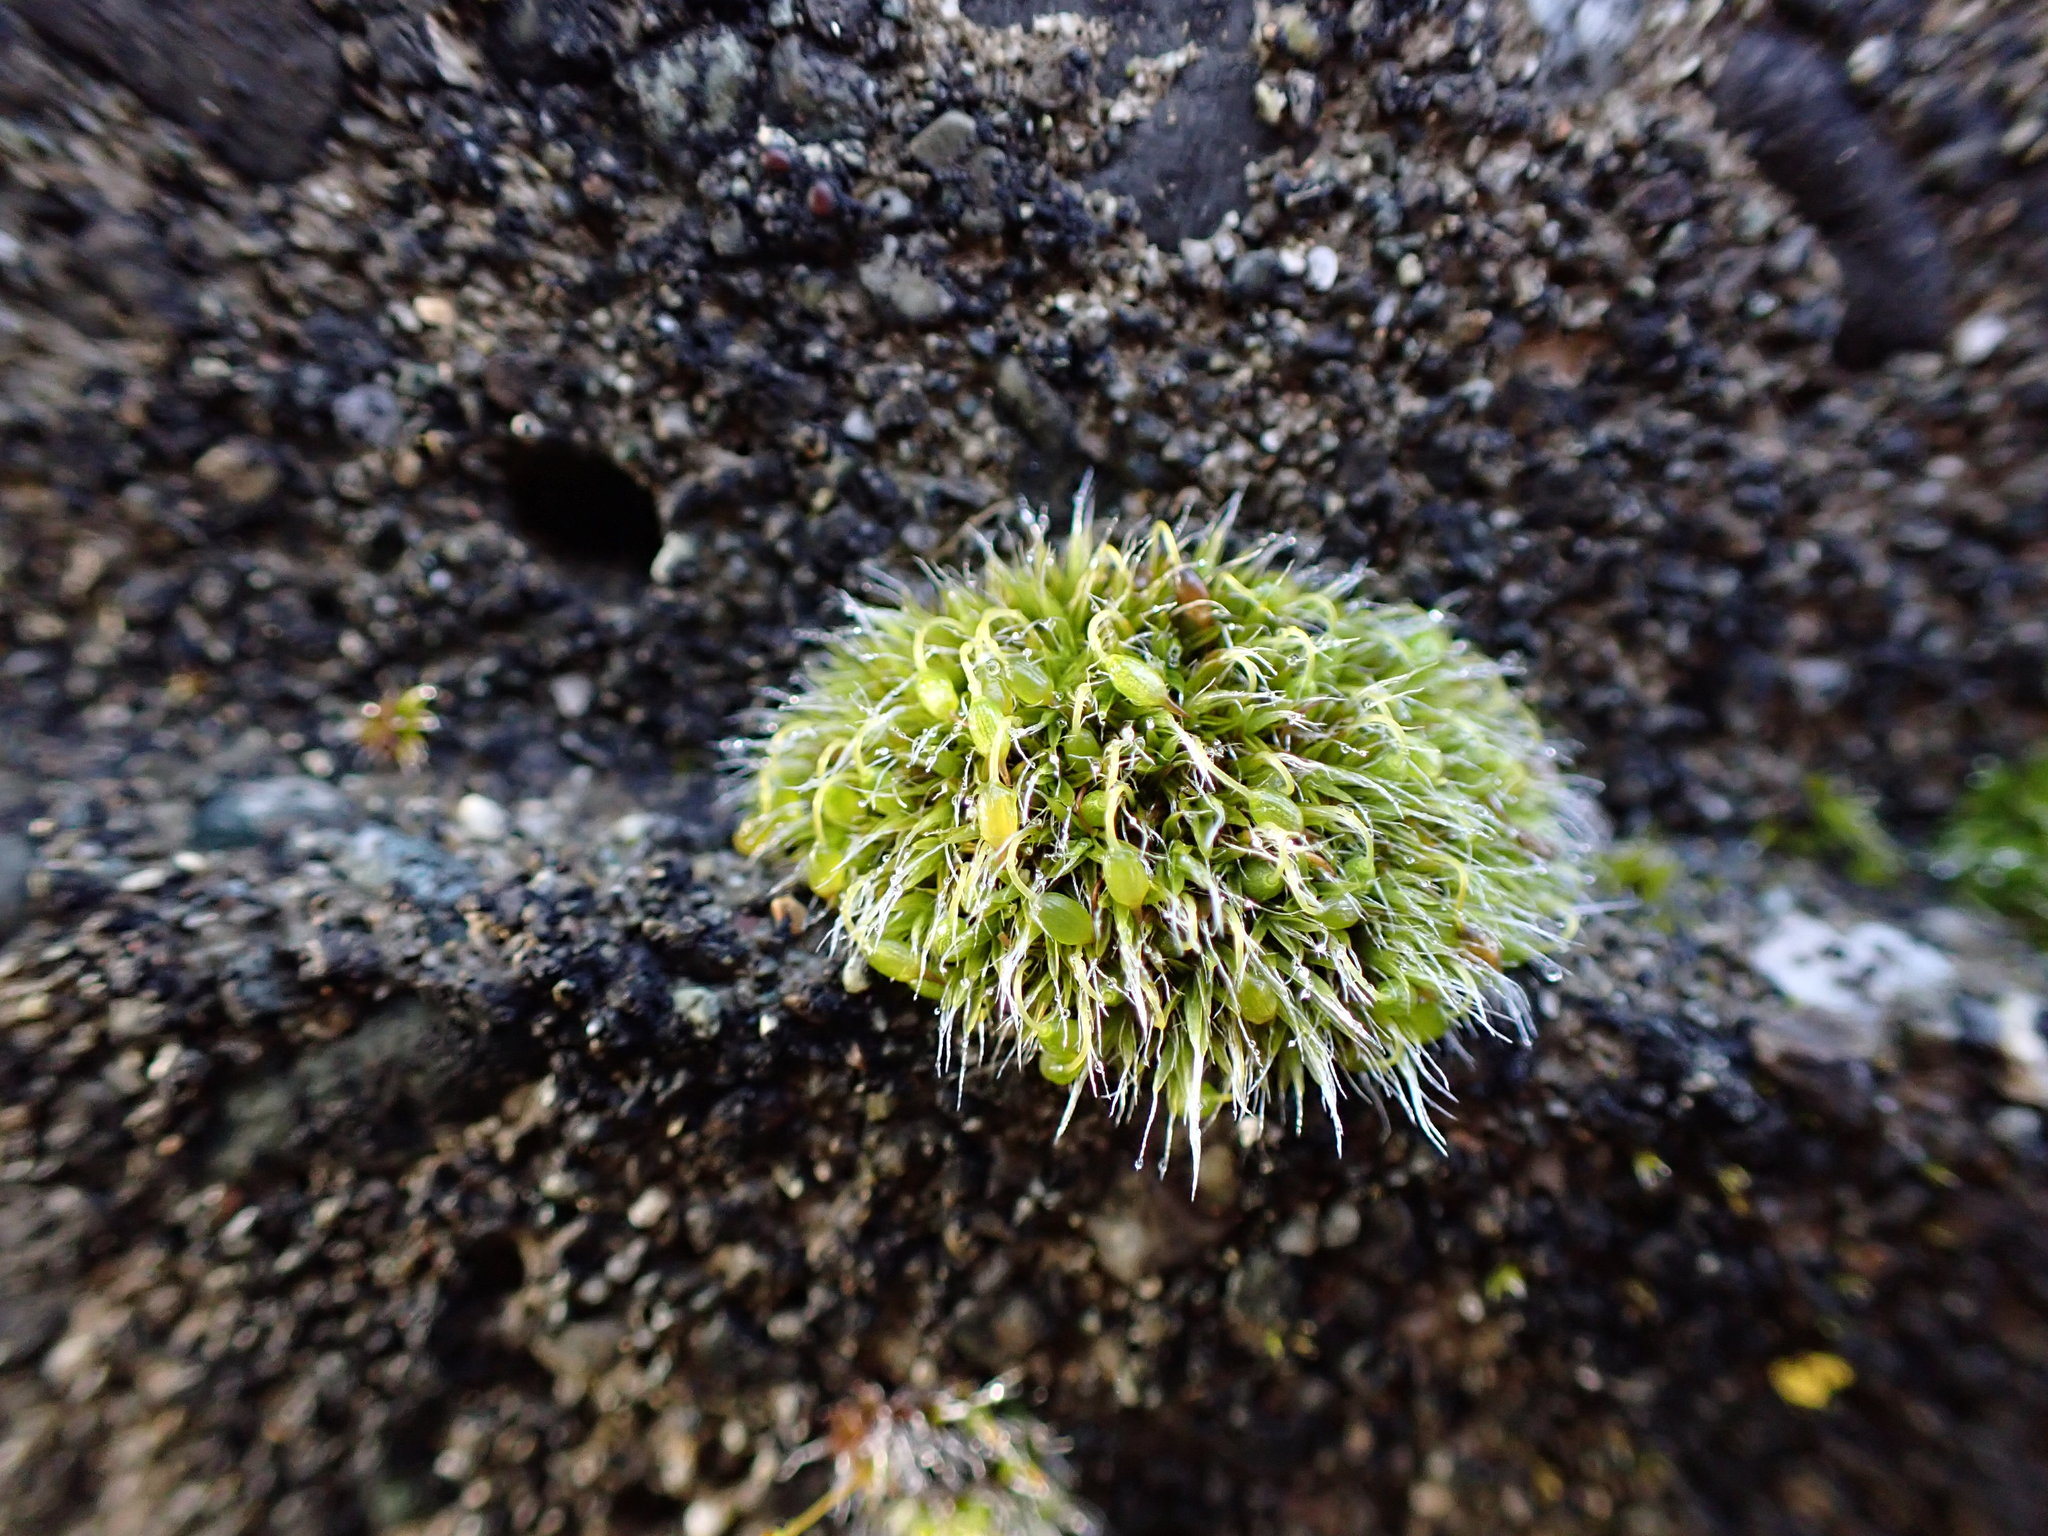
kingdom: Plantae
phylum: Bryophyta
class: Bryopsida
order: Grimmiales
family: Grimmiaceae
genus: Grimmia
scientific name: Grimmia pulvinata
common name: Grey-cushioned grimmia
